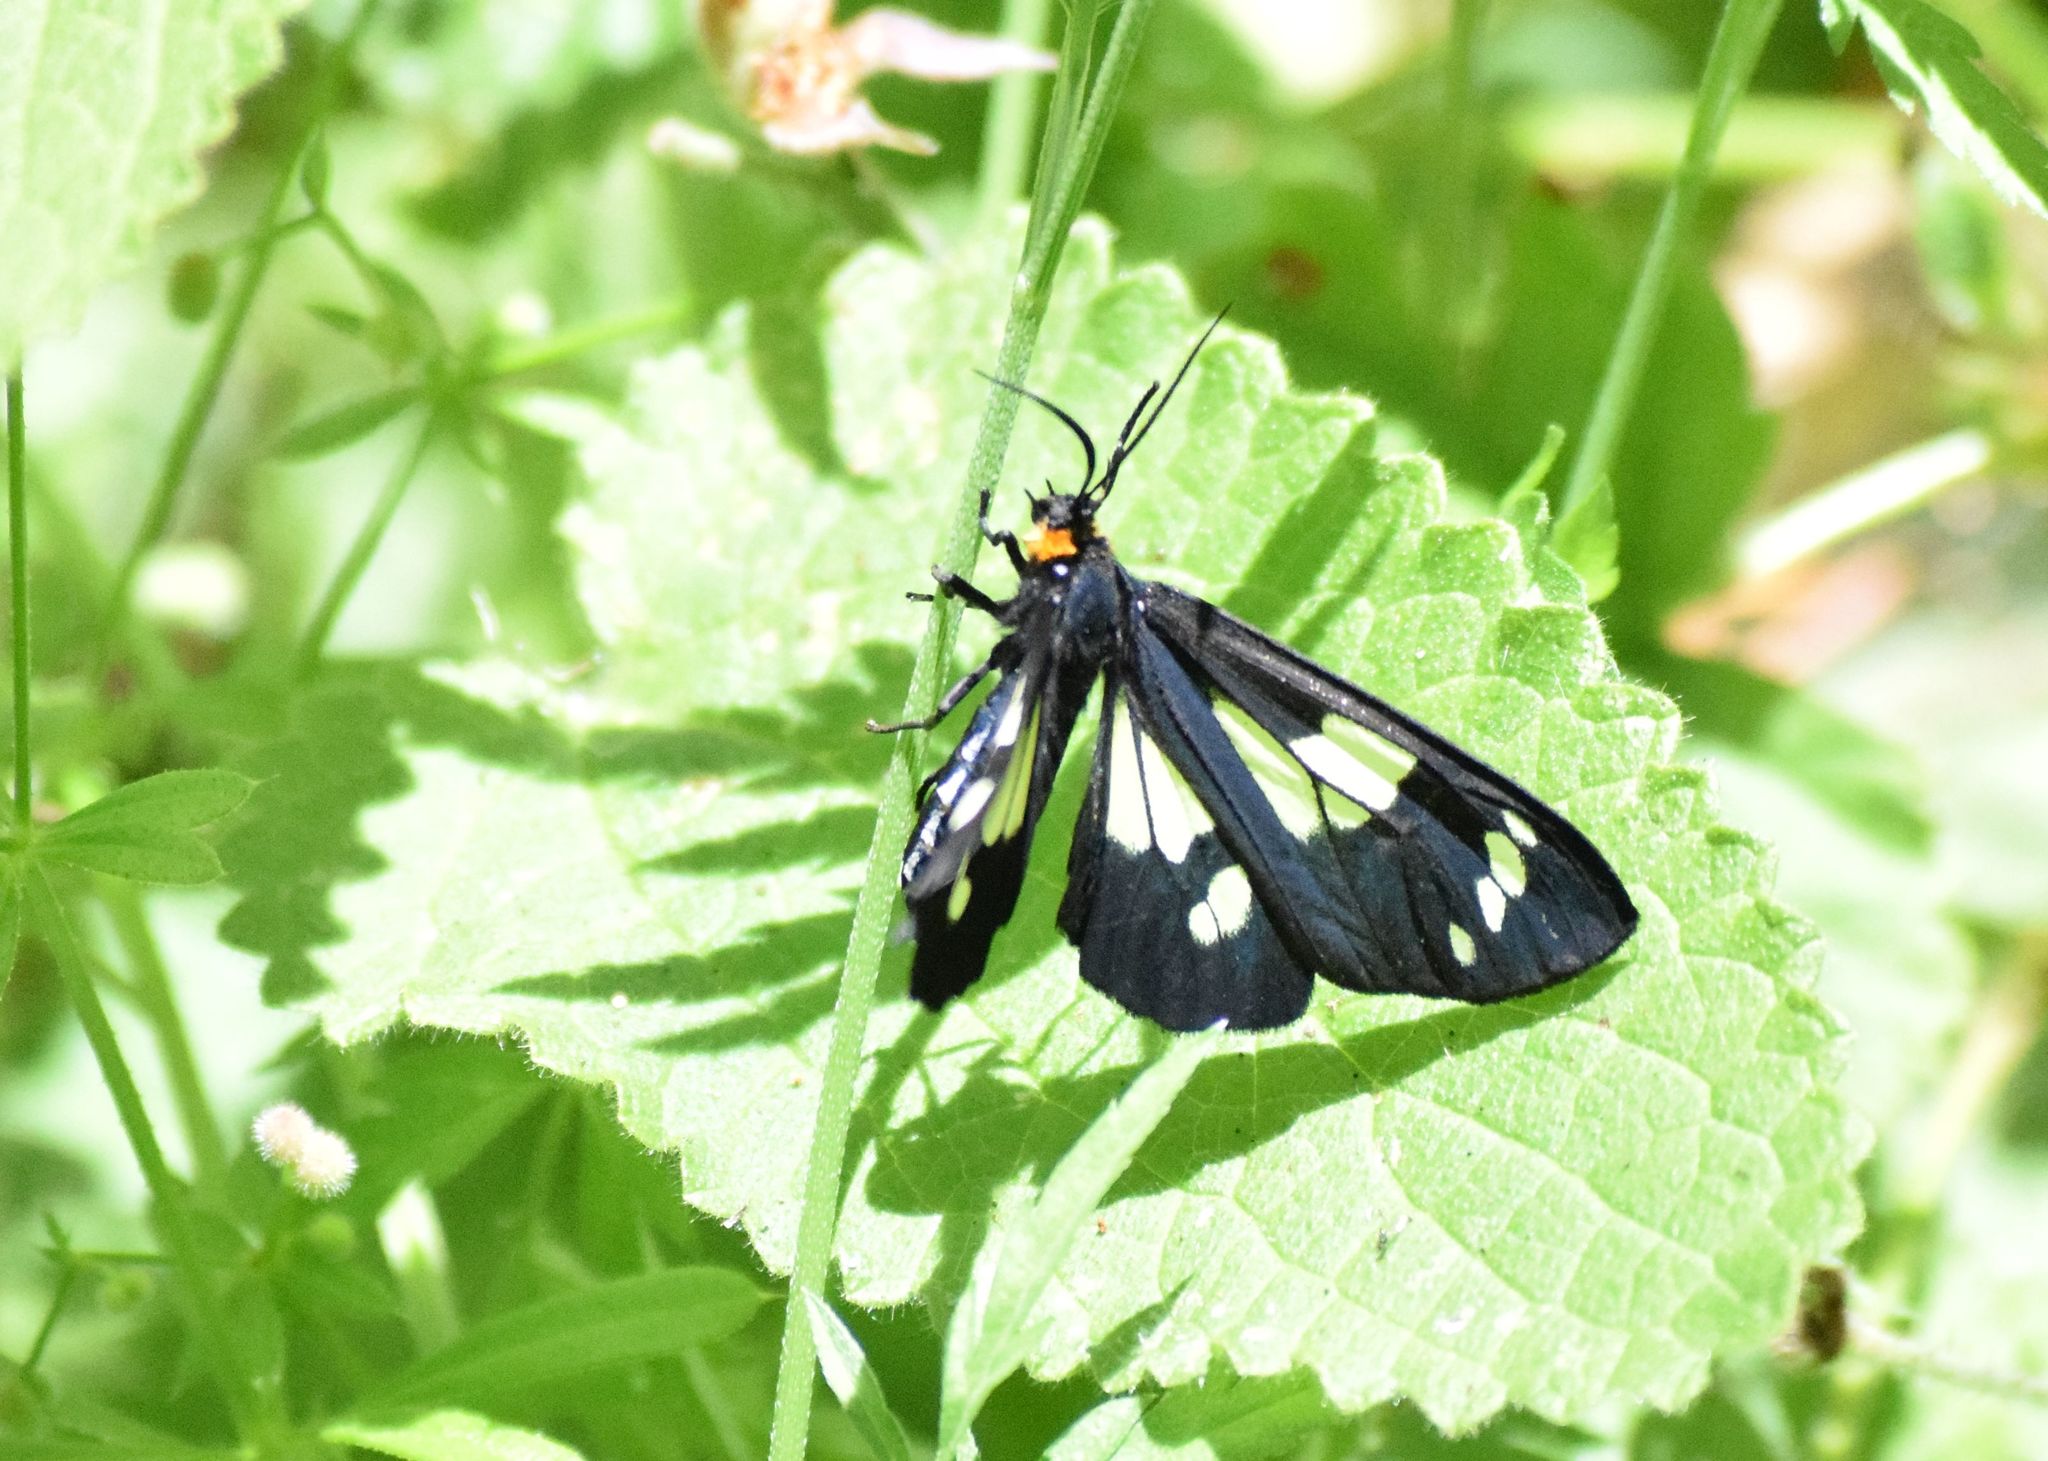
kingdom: Animalia
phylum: Arthropoda
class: Insecta
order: Lepidoptera
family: Erebidae
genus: Gnophaela
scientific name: Gnophaela latipennis
